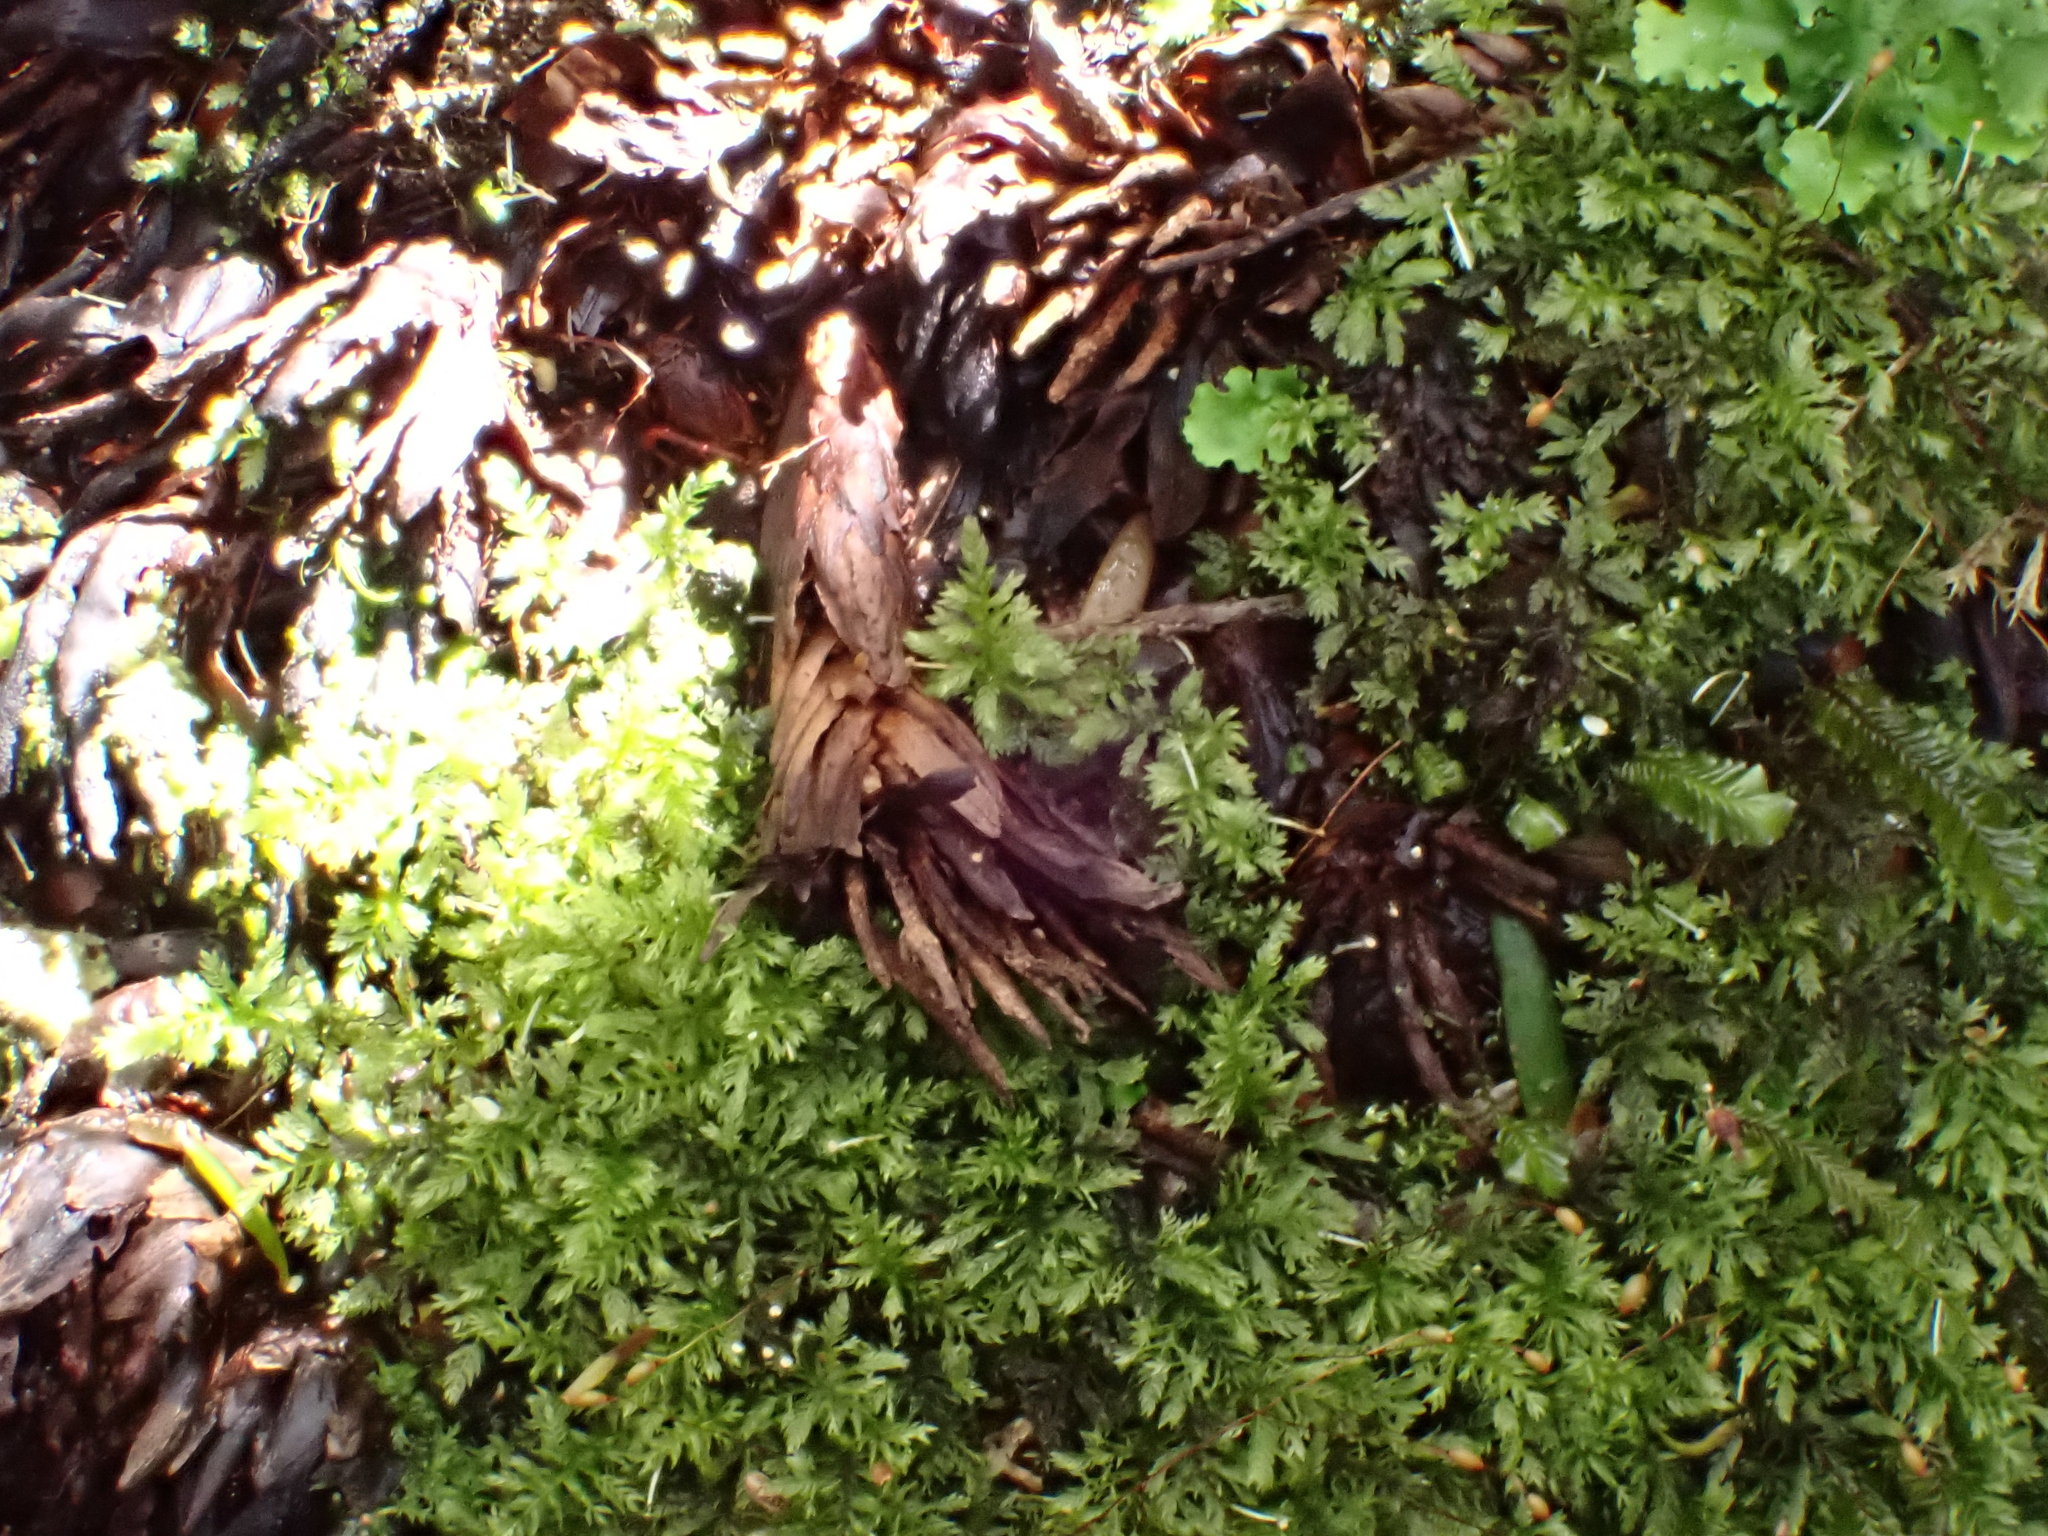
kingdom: Plantae
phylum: Tracheophyta
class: Magnoliopsida
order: Santalales
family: Mystropetalaceae
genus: Dactylanthus
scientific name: Dactylanthus taylorii
